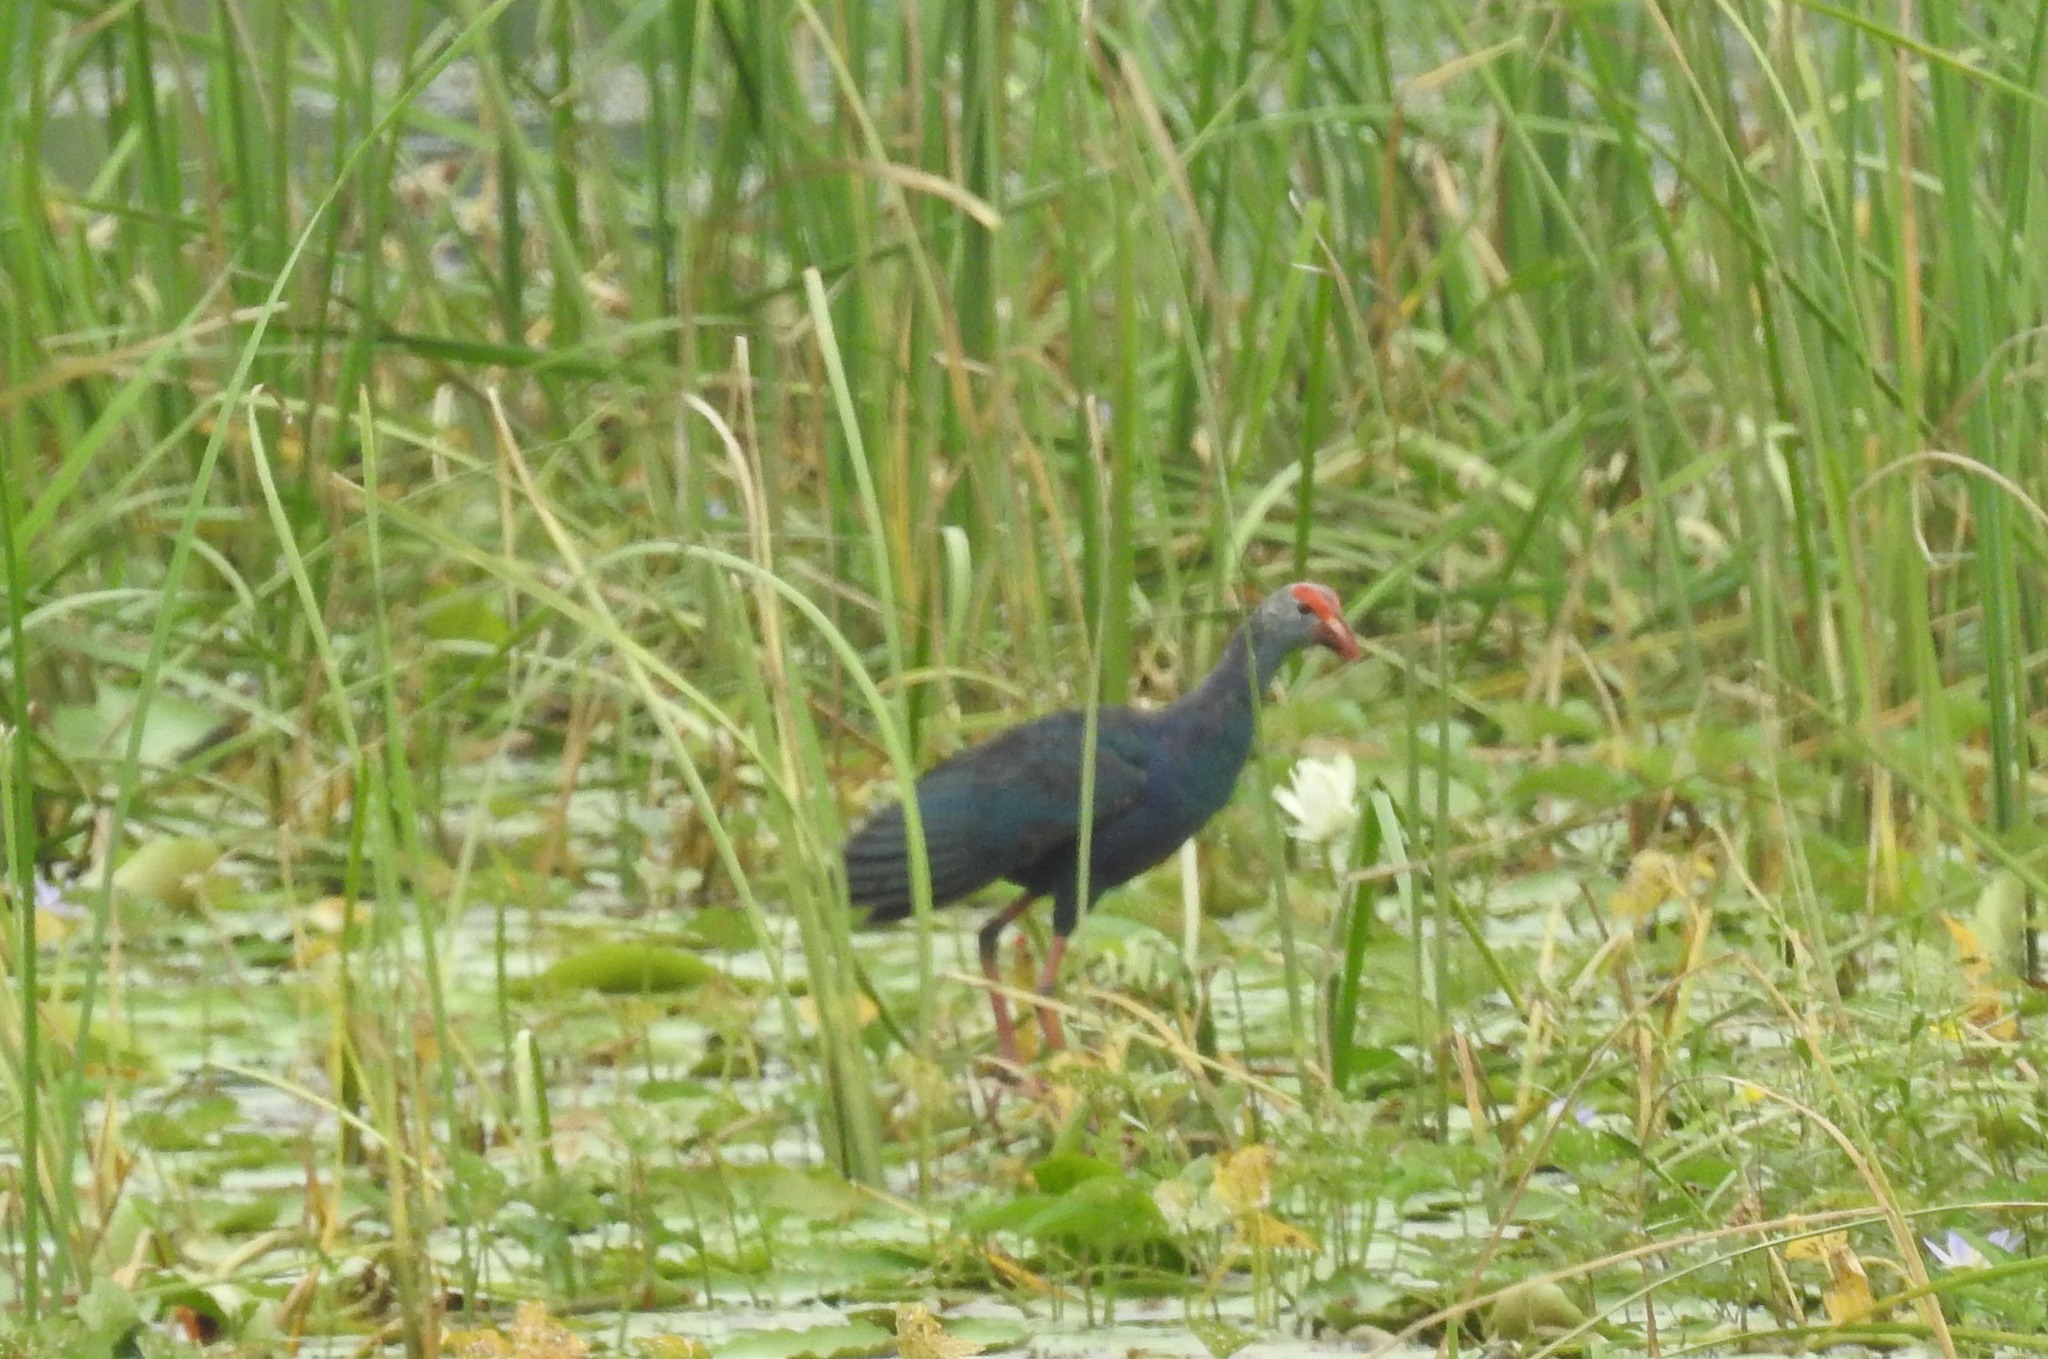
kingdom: Animalia
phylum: Chordata
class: Aves
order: Gruiformes
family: Rallidae
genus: Porphyrio
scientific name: Porphyrio porphyrio
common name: Purple swamphen
